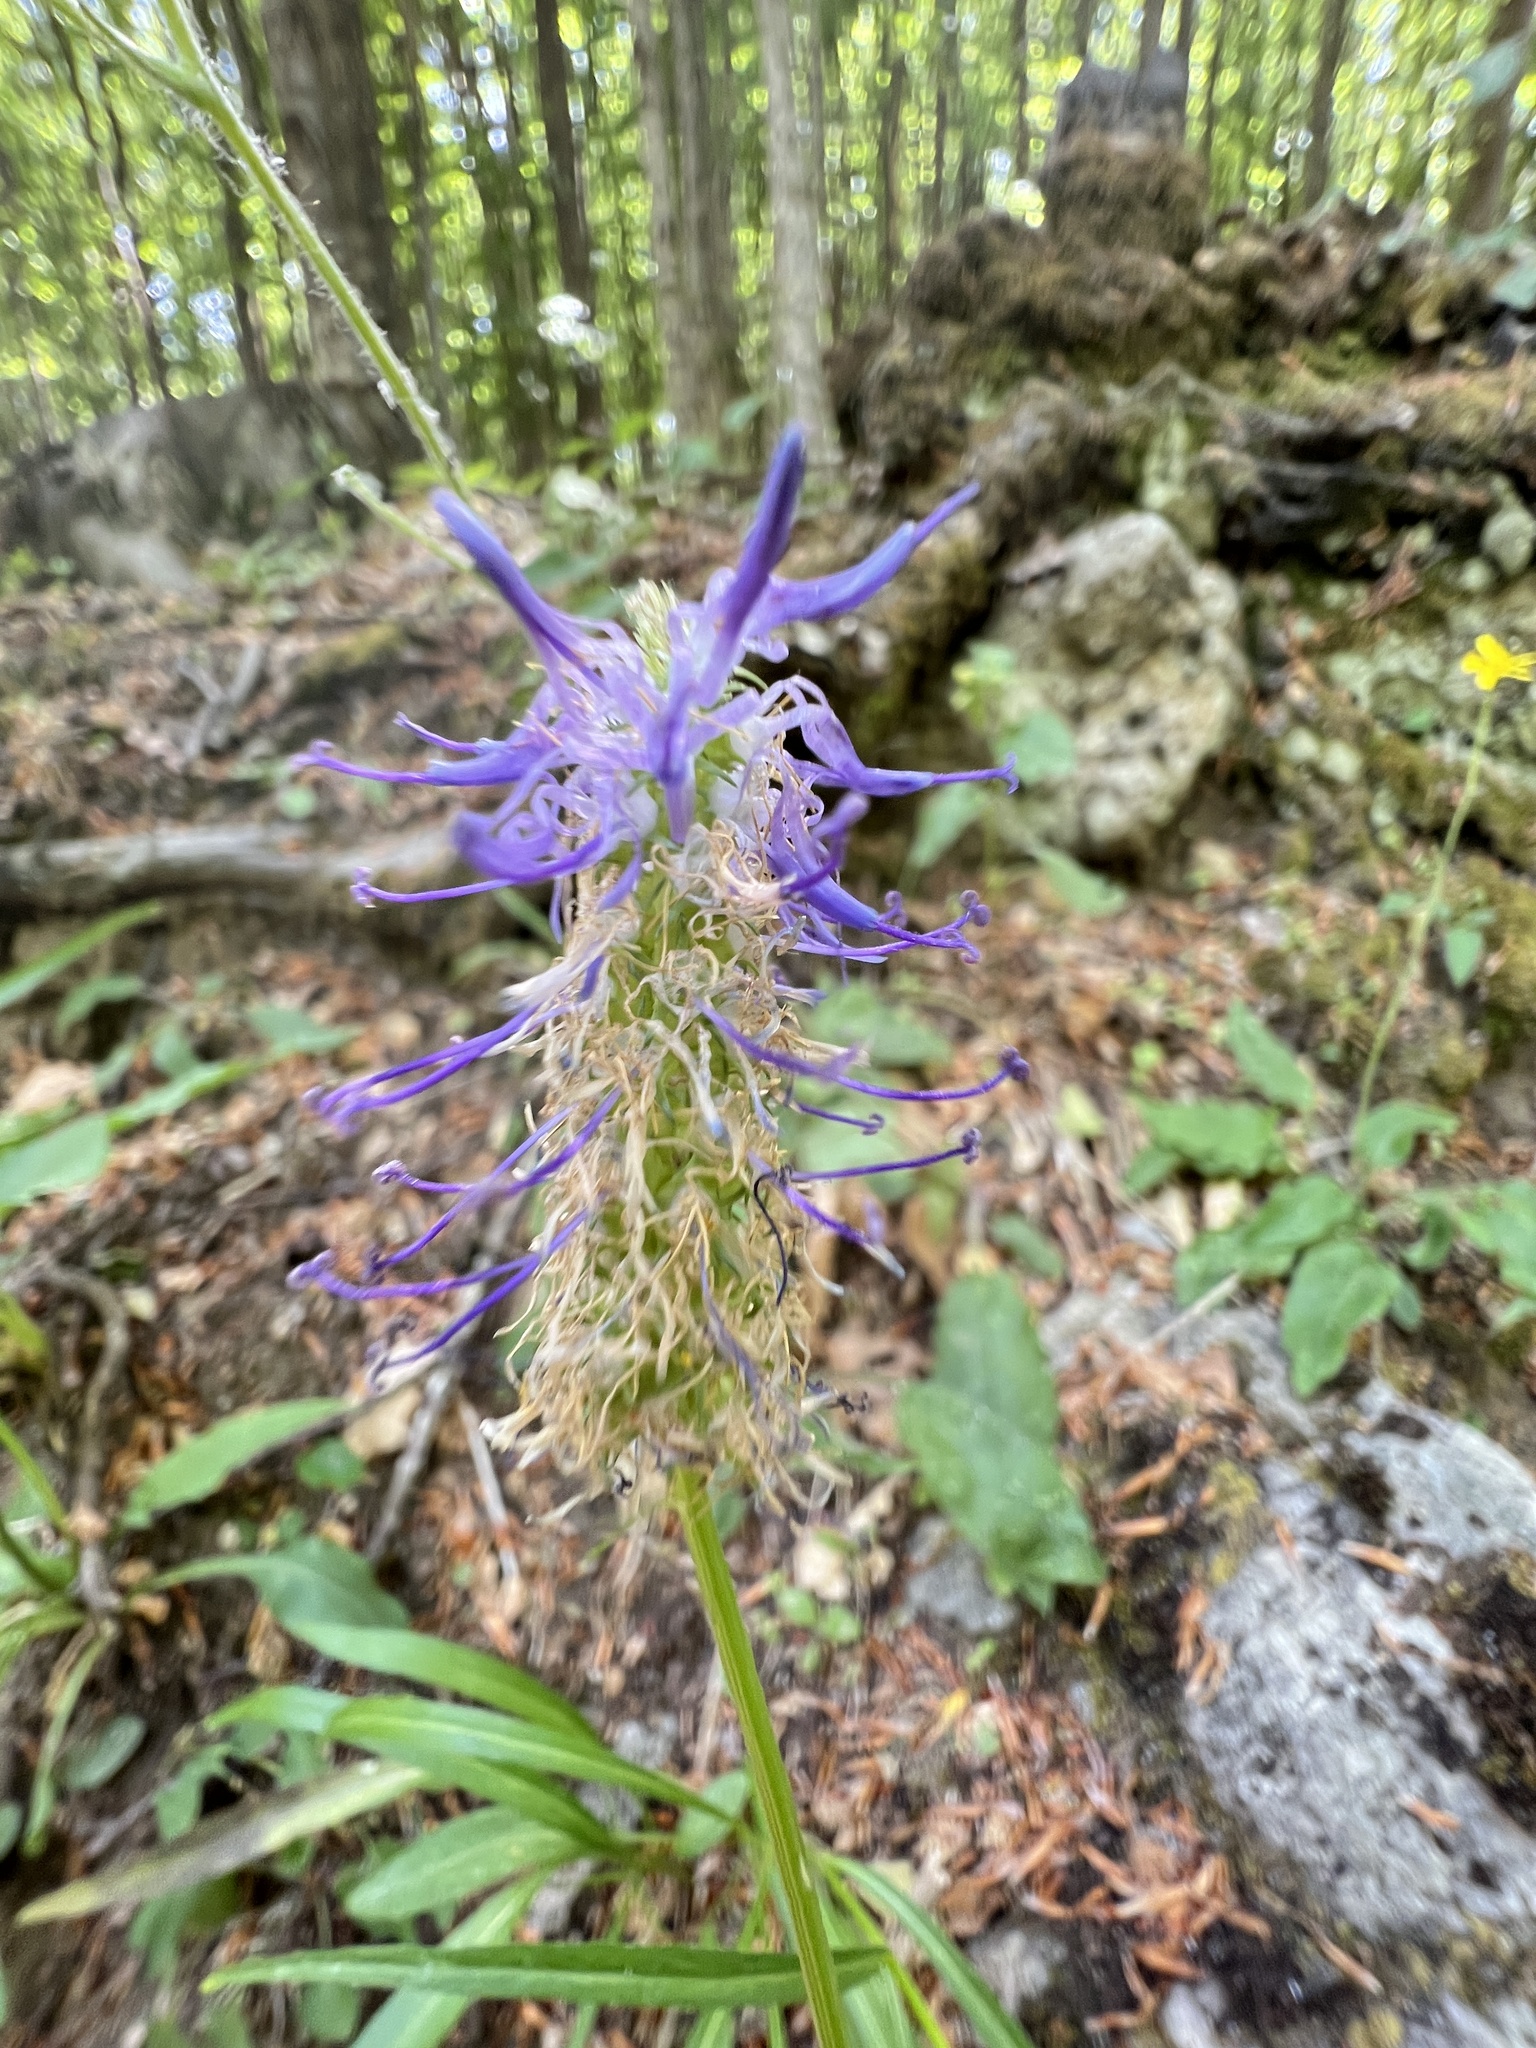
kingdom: Plantae
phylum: Tracheophyta
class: Magnoliopsida
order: Asterales
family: Campanulaceae
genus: Phyteuma
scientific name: Phyteuma scorzonerifolium
